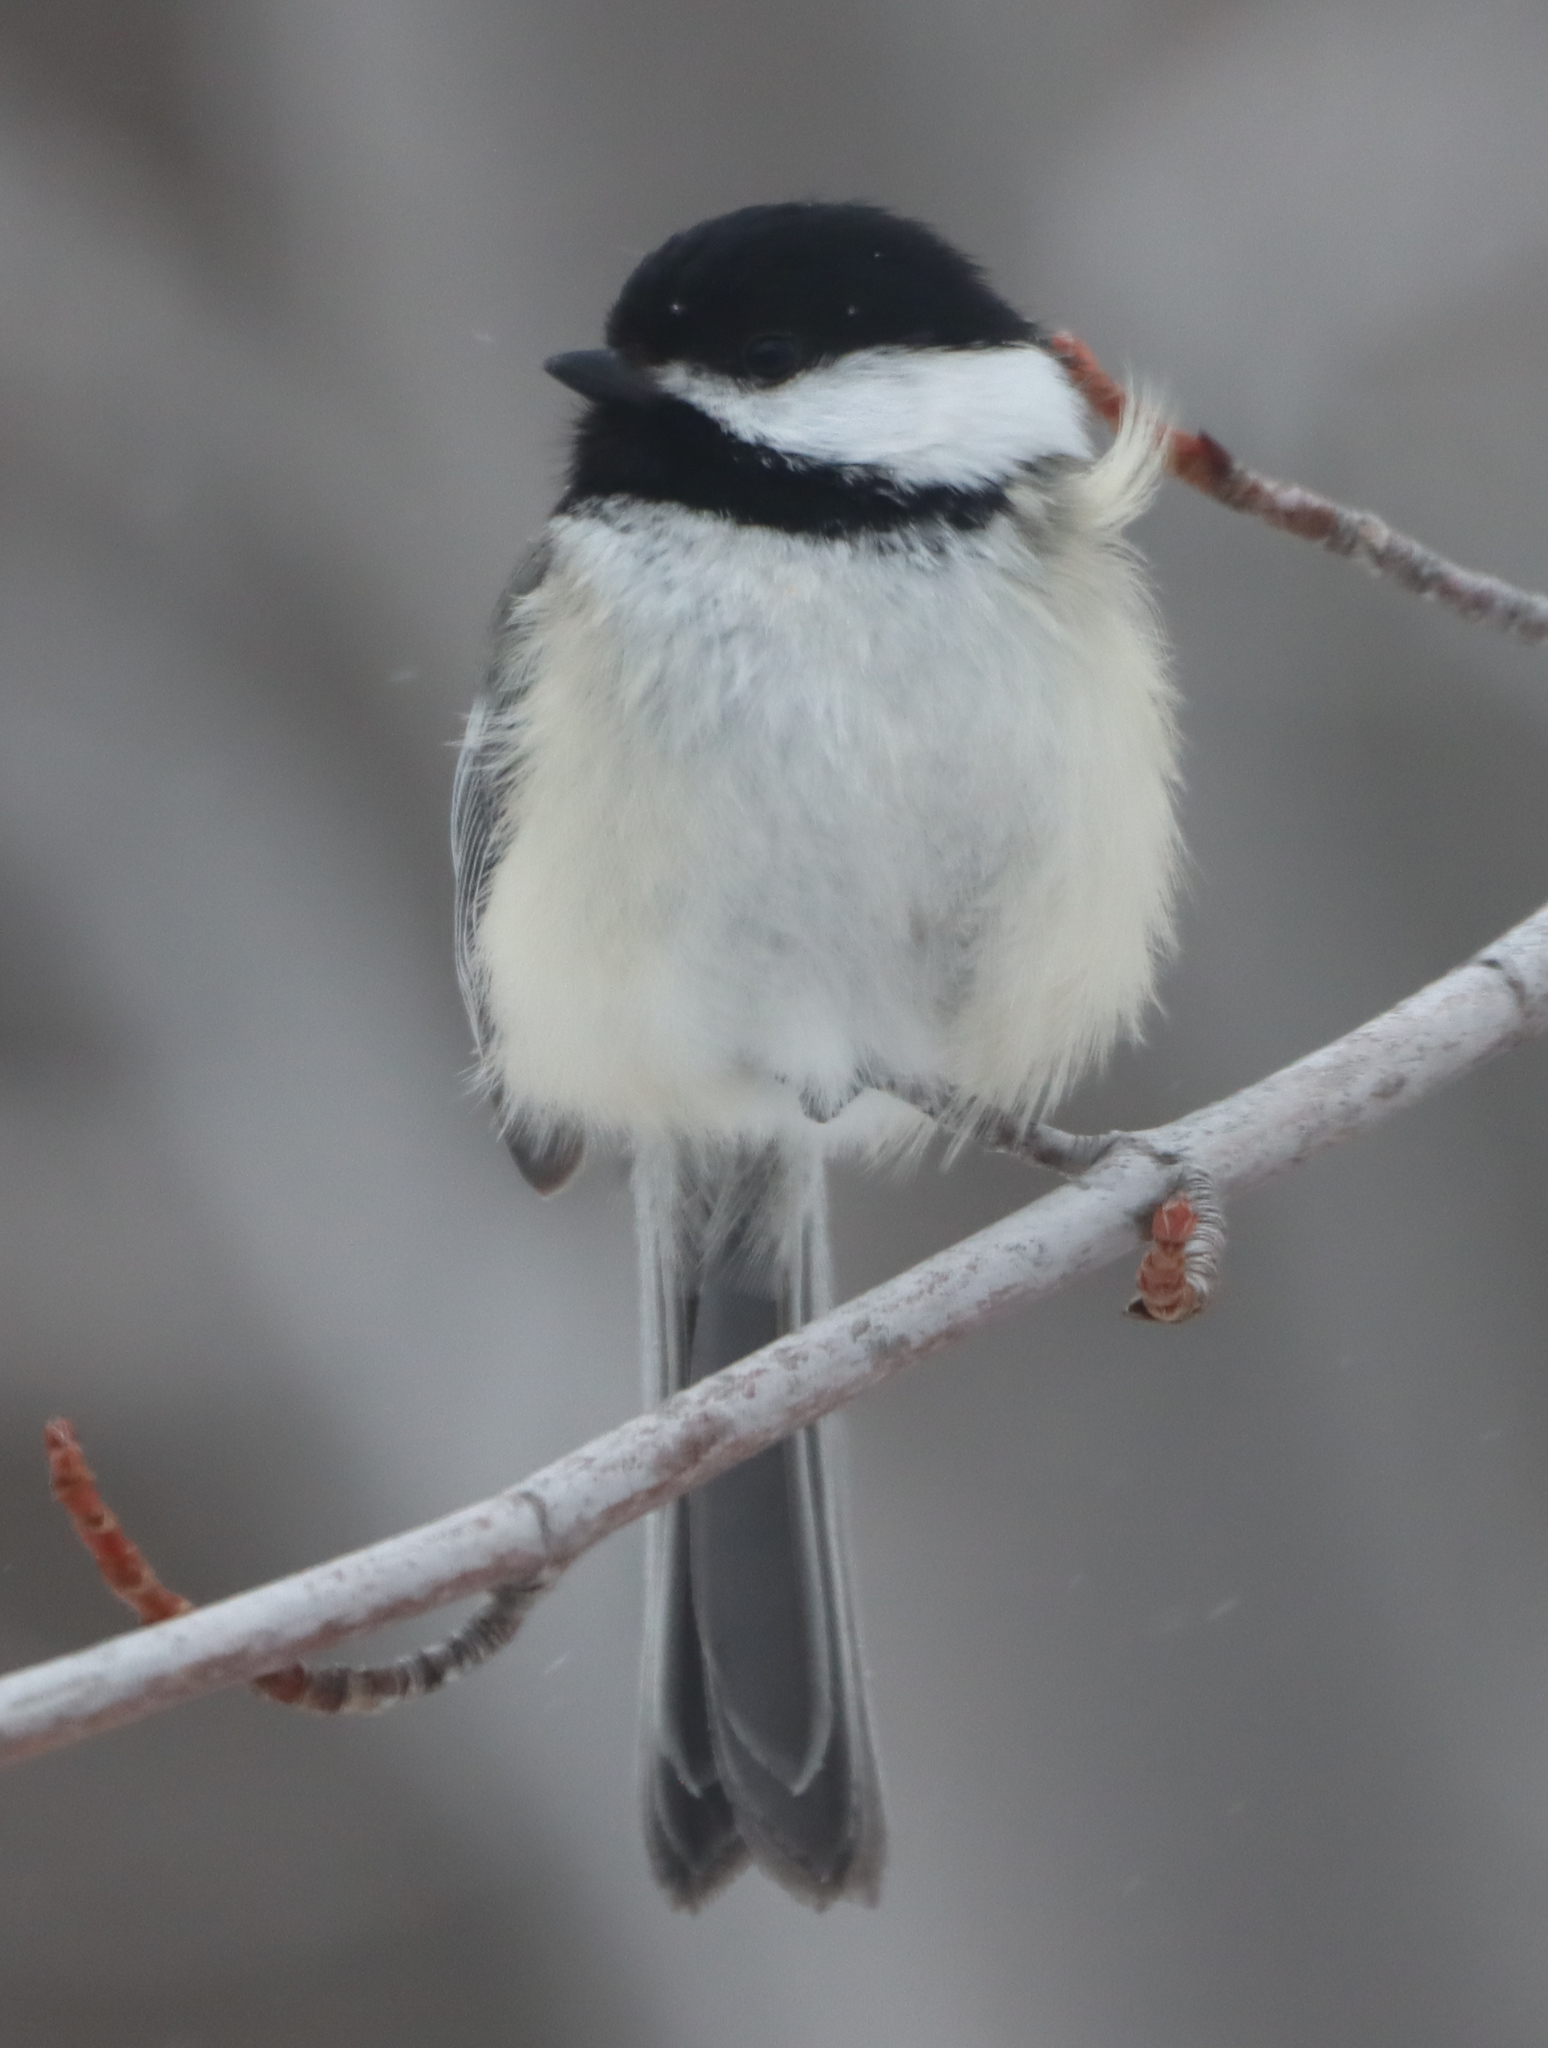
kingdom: Animalia
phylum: Chordata
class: Aves
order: Passeriformes
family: Paridae
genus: Poecile
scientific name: Poecile atricapillus
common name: Black-capped chickadee
